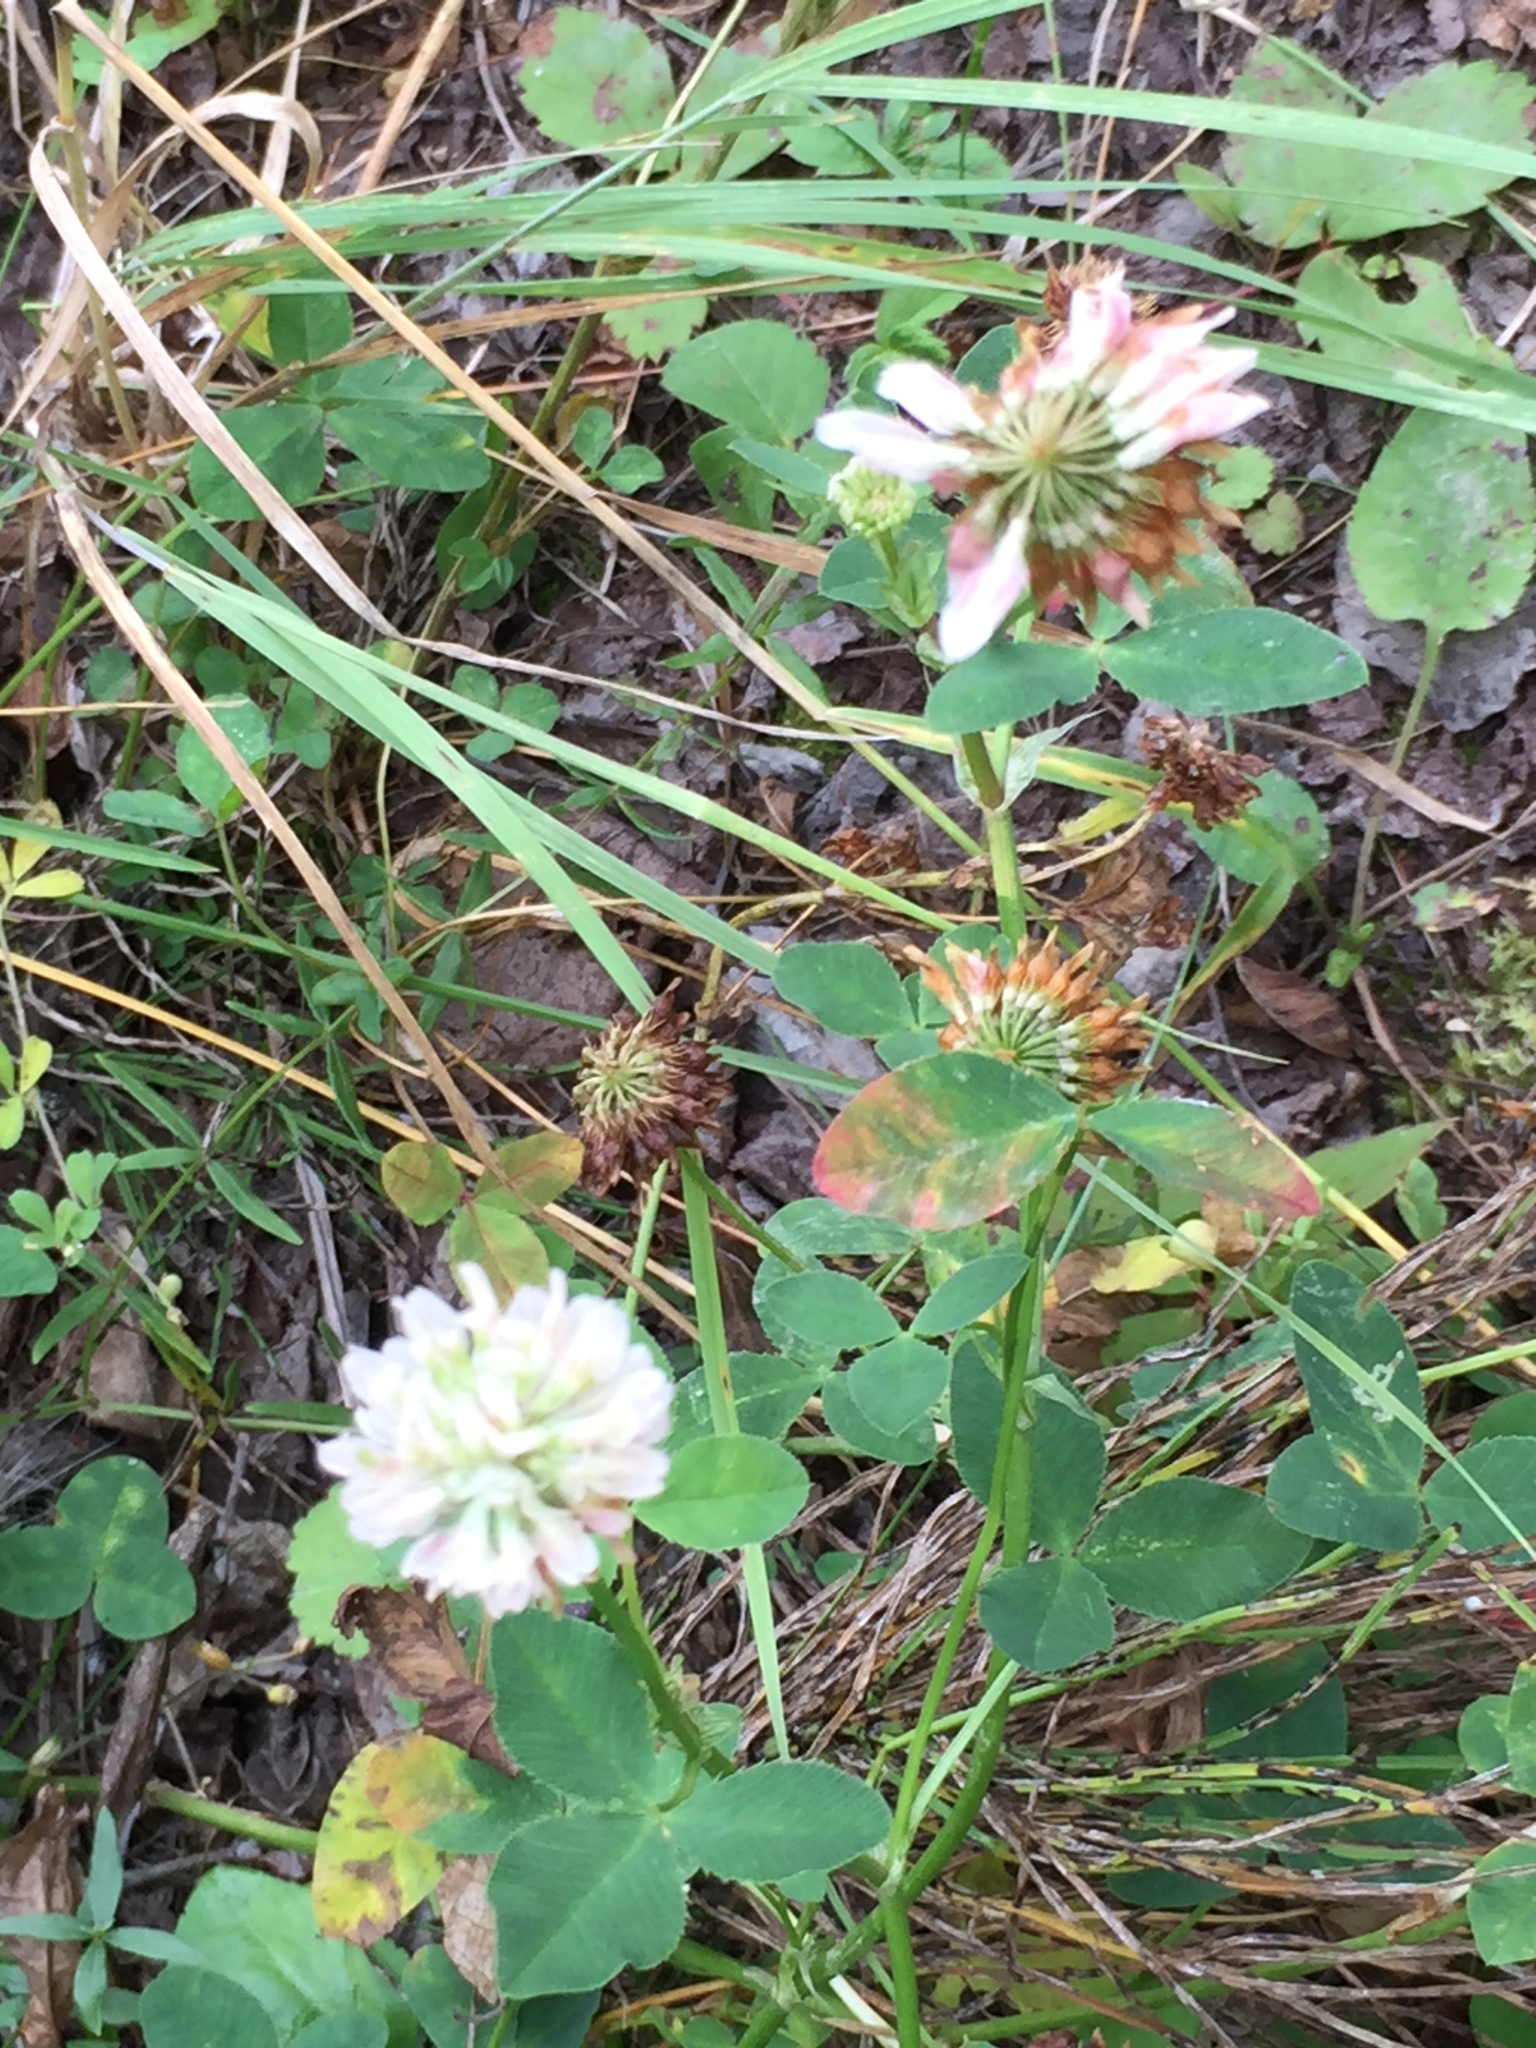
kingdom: Plantae
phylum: Tracheophyta
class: Magnoliopsida
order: Fabales
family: Fabaceae
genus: Trifolium
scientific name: Trifolium repens
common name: White clover
